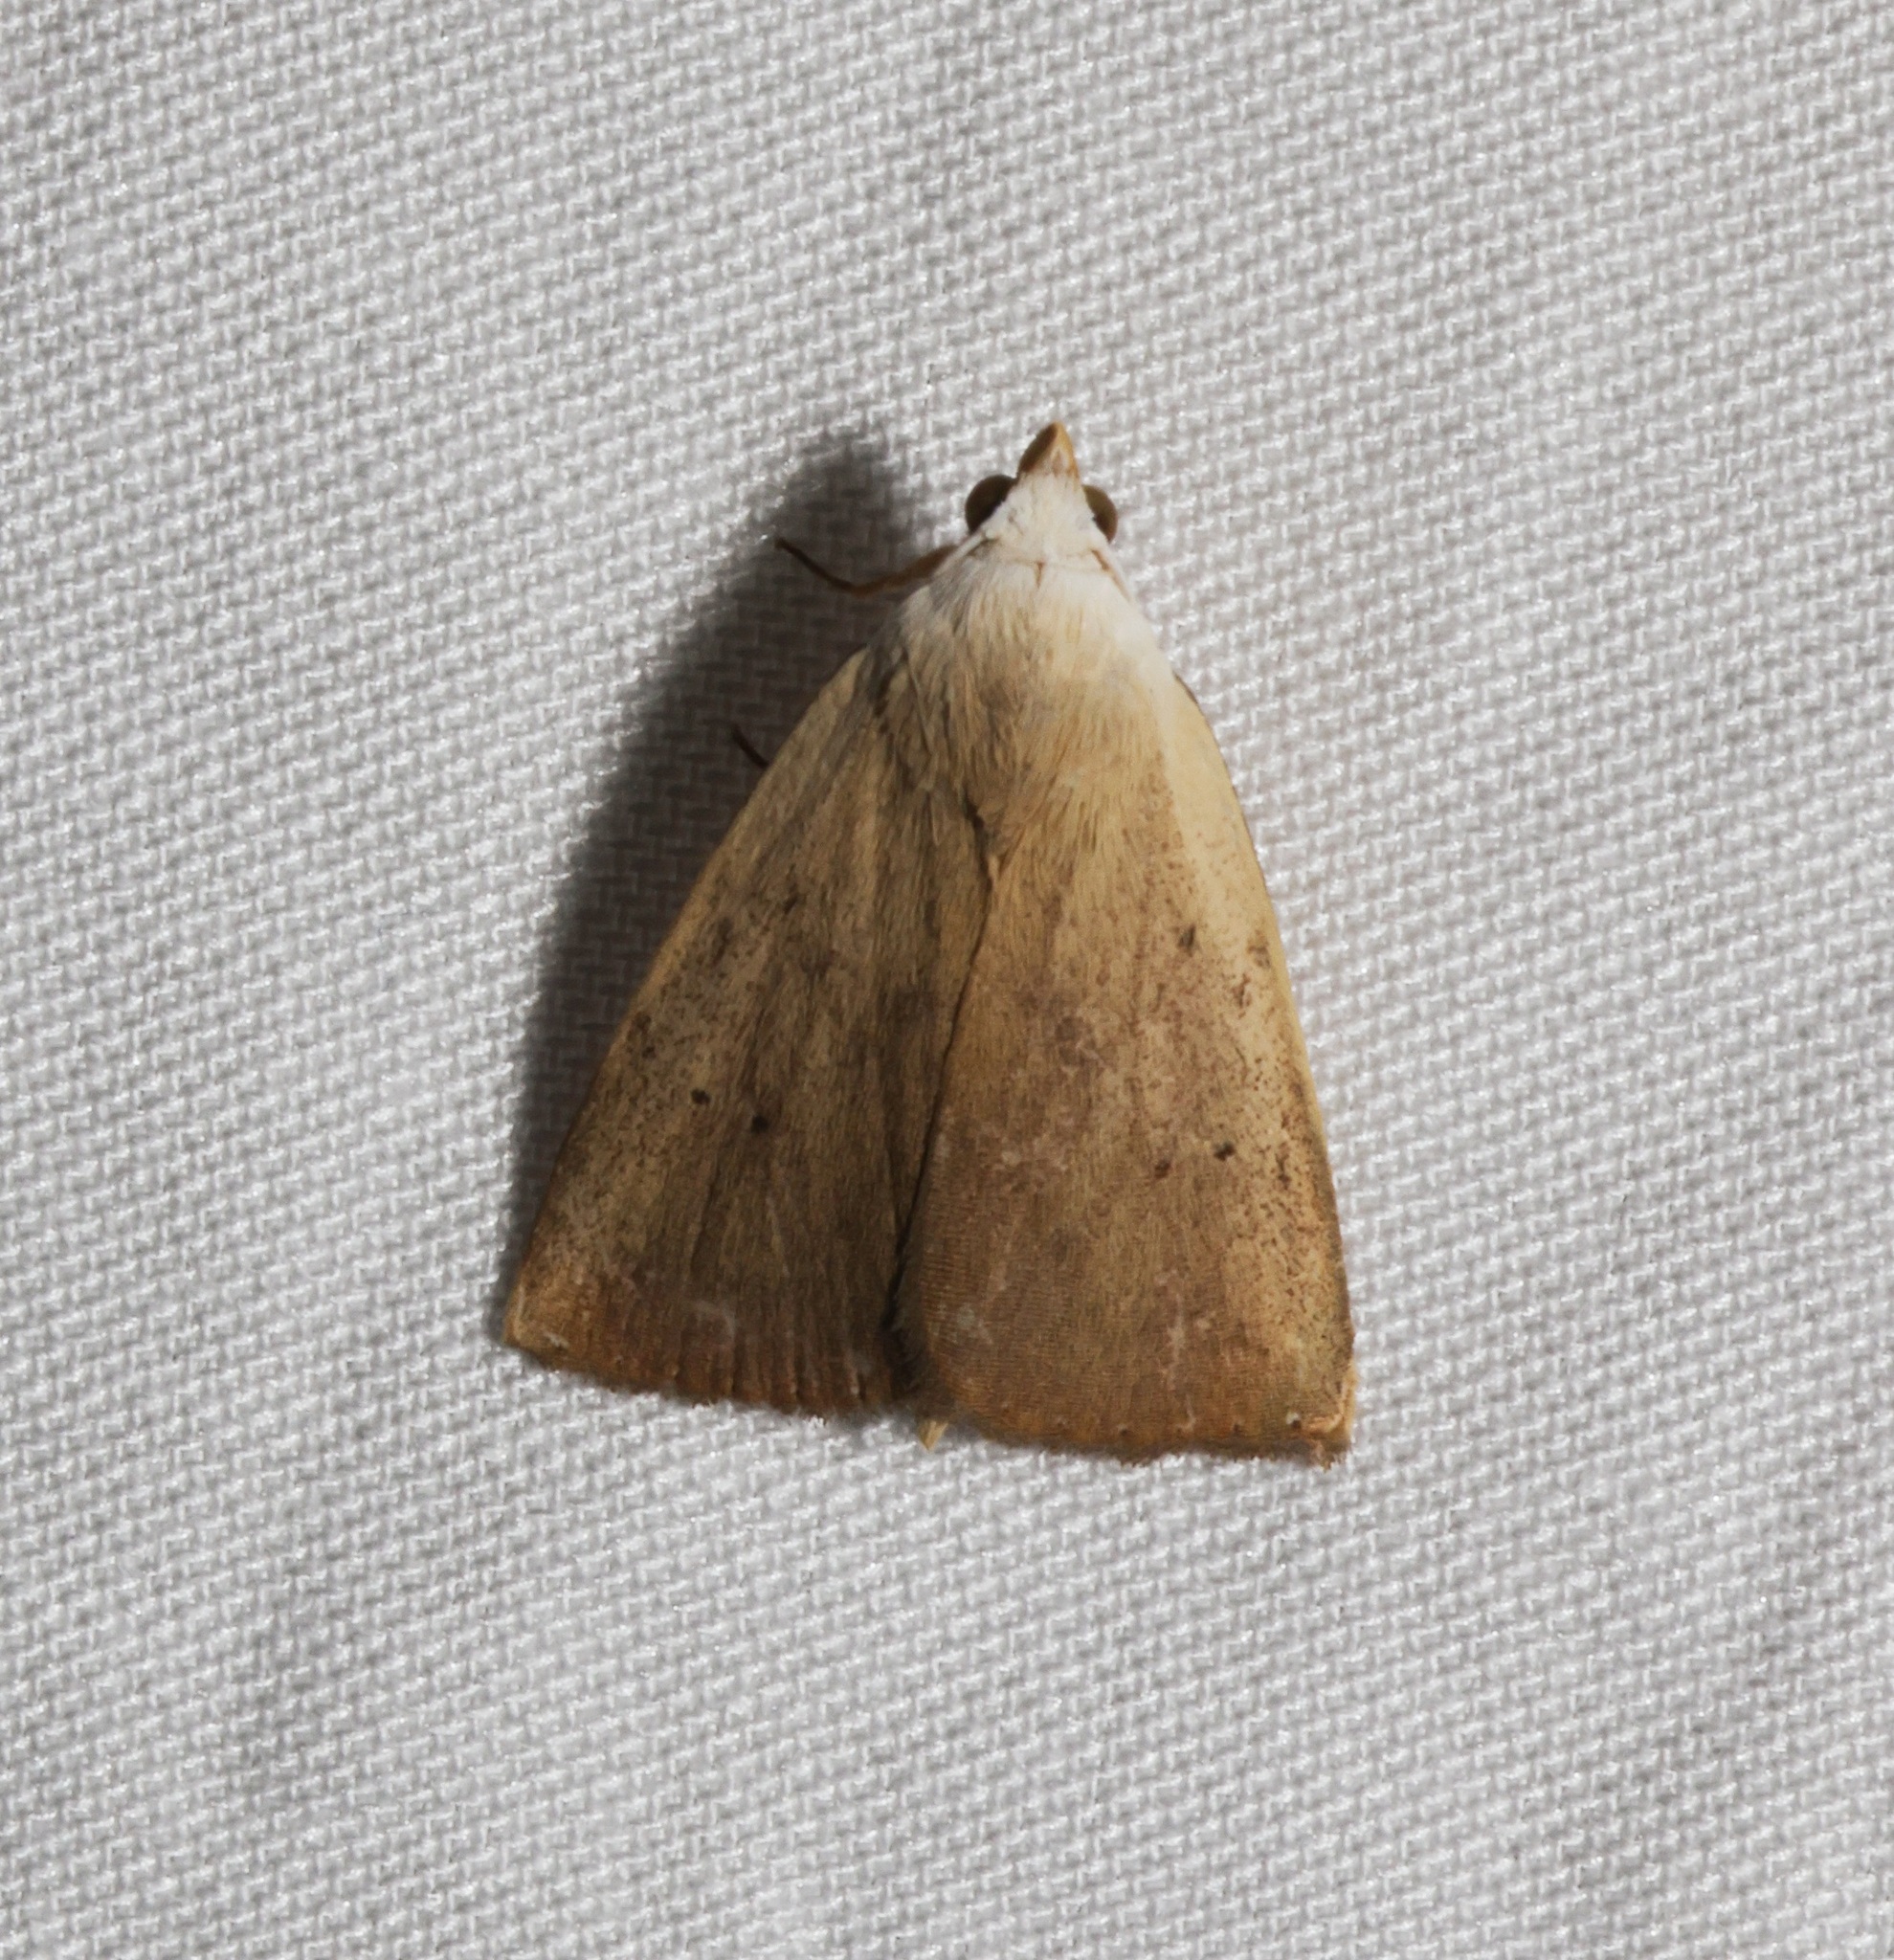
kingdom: Animalia
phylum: Arthropoda
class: Insecta
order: Lepidoptera
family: Erebidae
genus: Rivula
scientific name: Rivula ochracea
